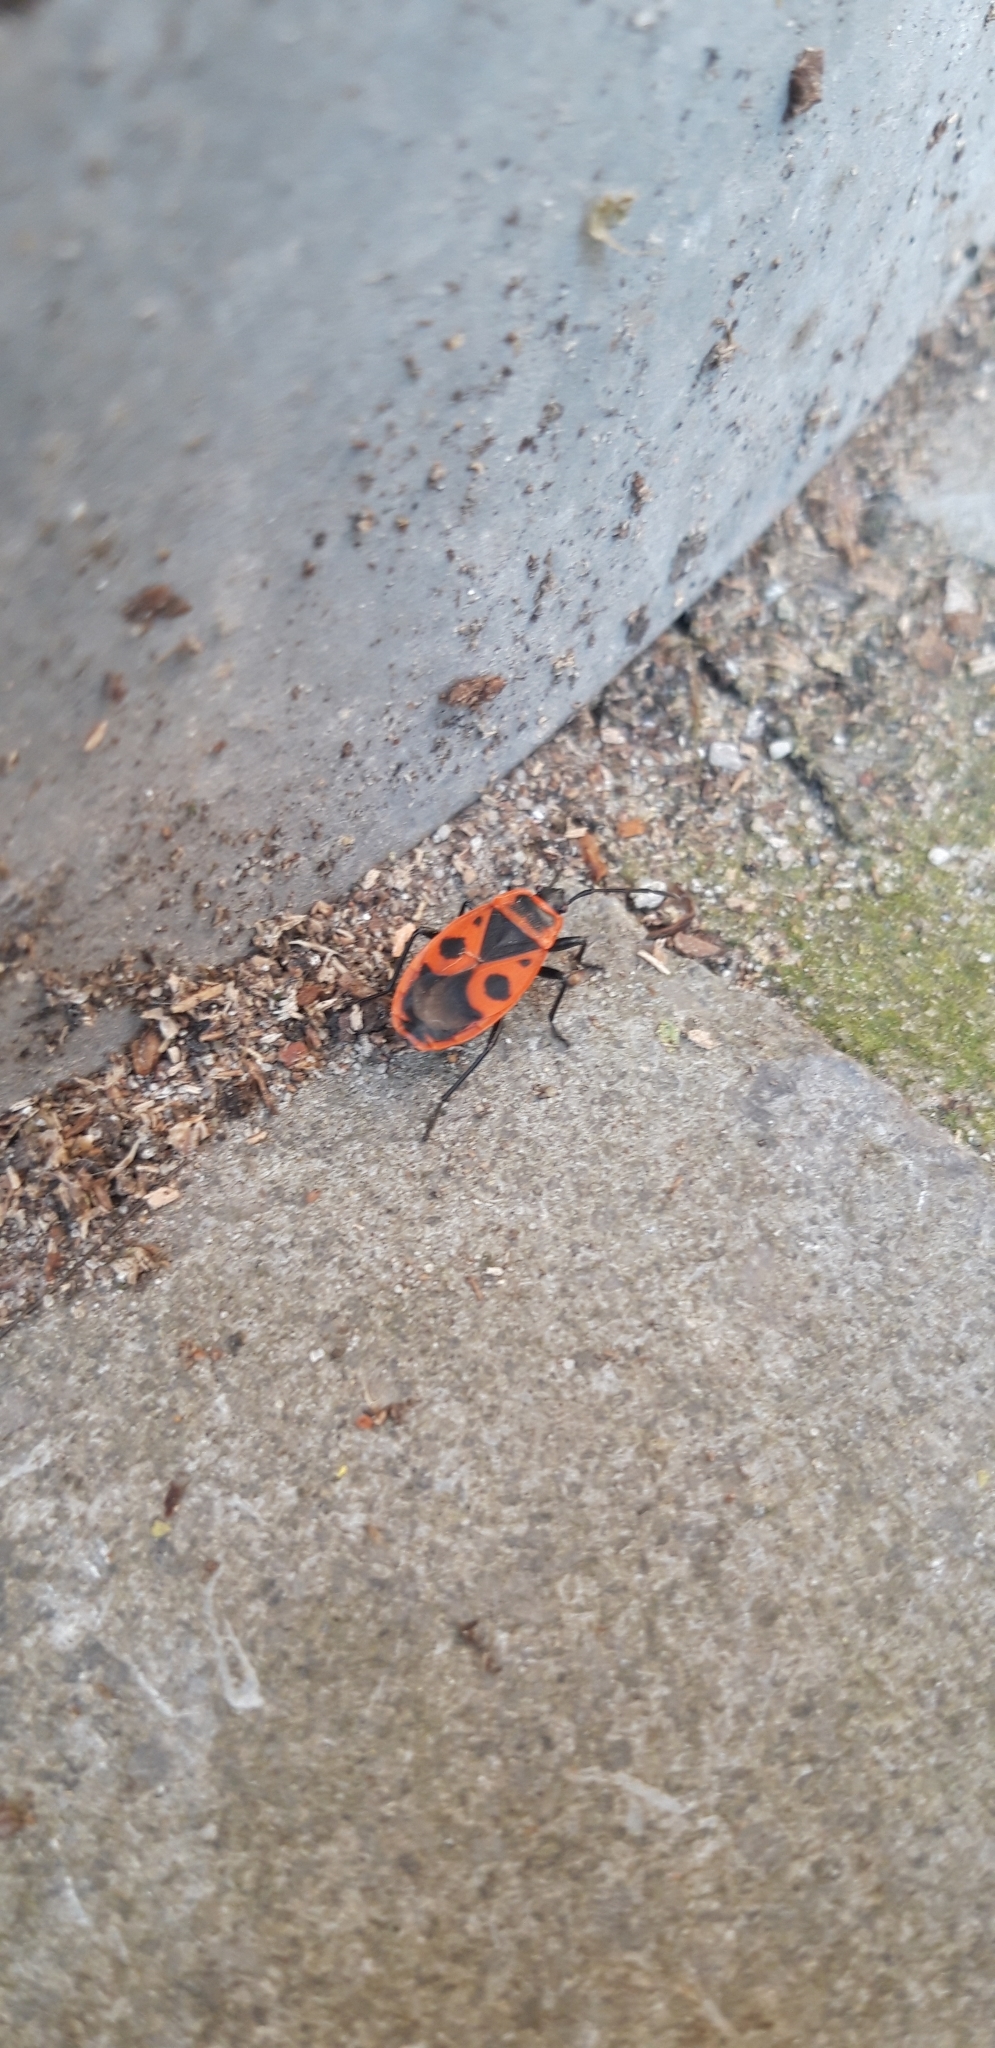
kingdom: Animalia
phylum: Arthropoda
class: Insecta
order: Hemiptera
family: Pyrrhocoridae
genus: Pyrrhocoris
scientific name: Pyrrhocoris apterus
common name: Firebug
